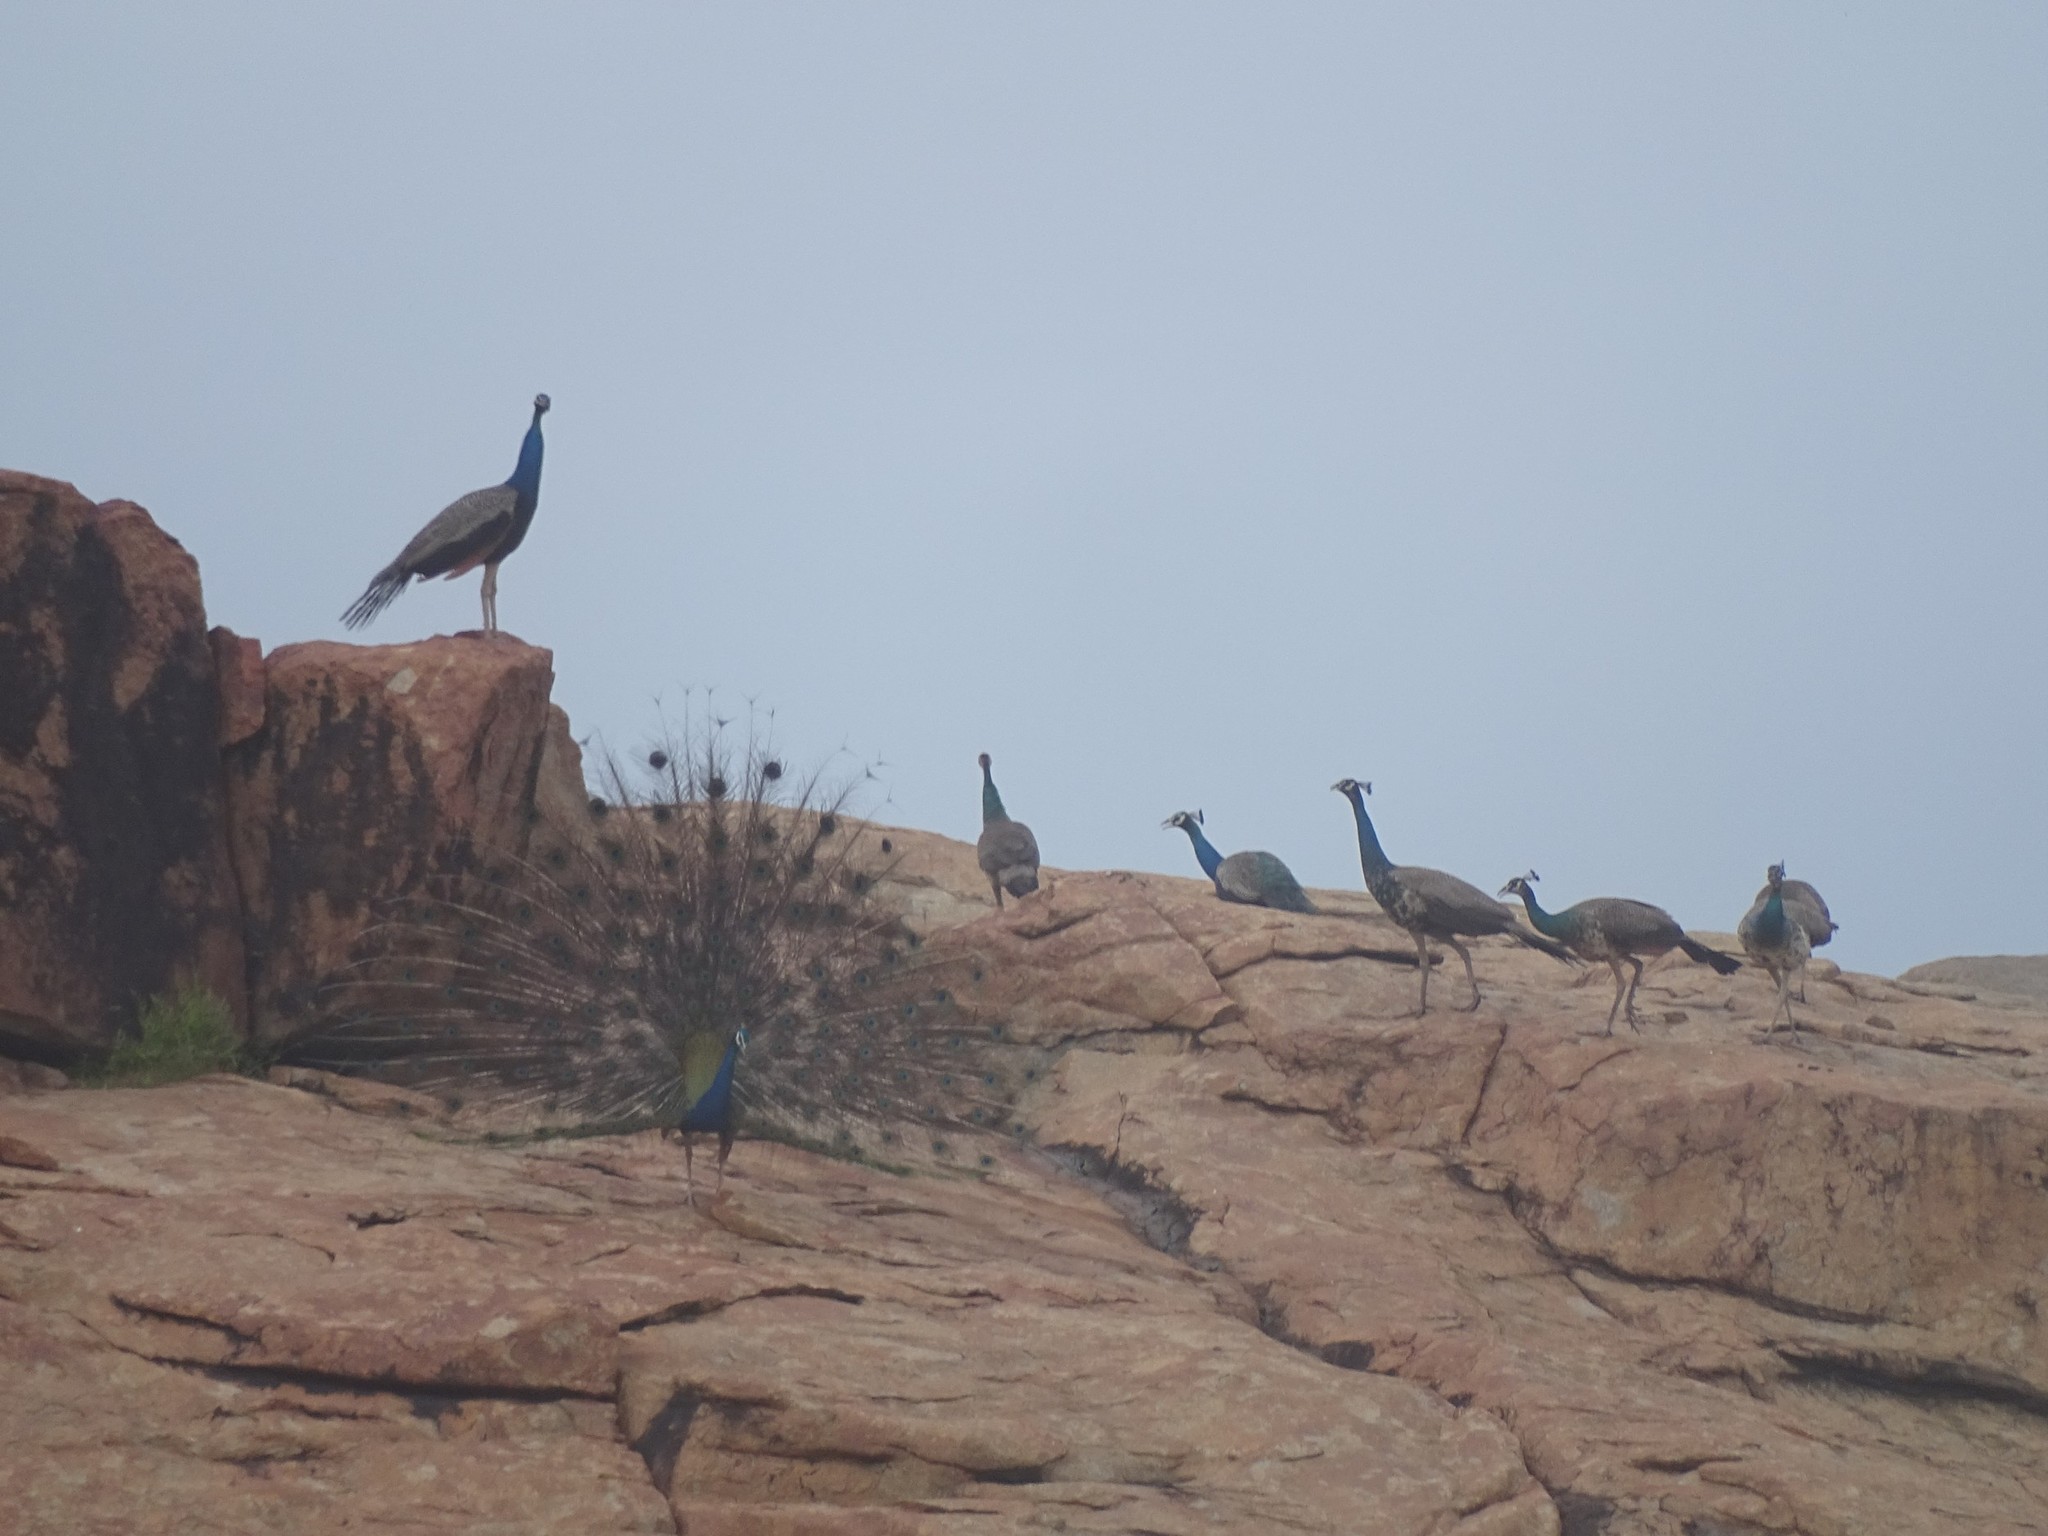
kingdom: Animalia
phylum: Chordata
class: Aves
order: Galliformes
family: Phasianidae
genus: Pavo
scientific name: Pavo cristatus
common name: Indian peafowl
